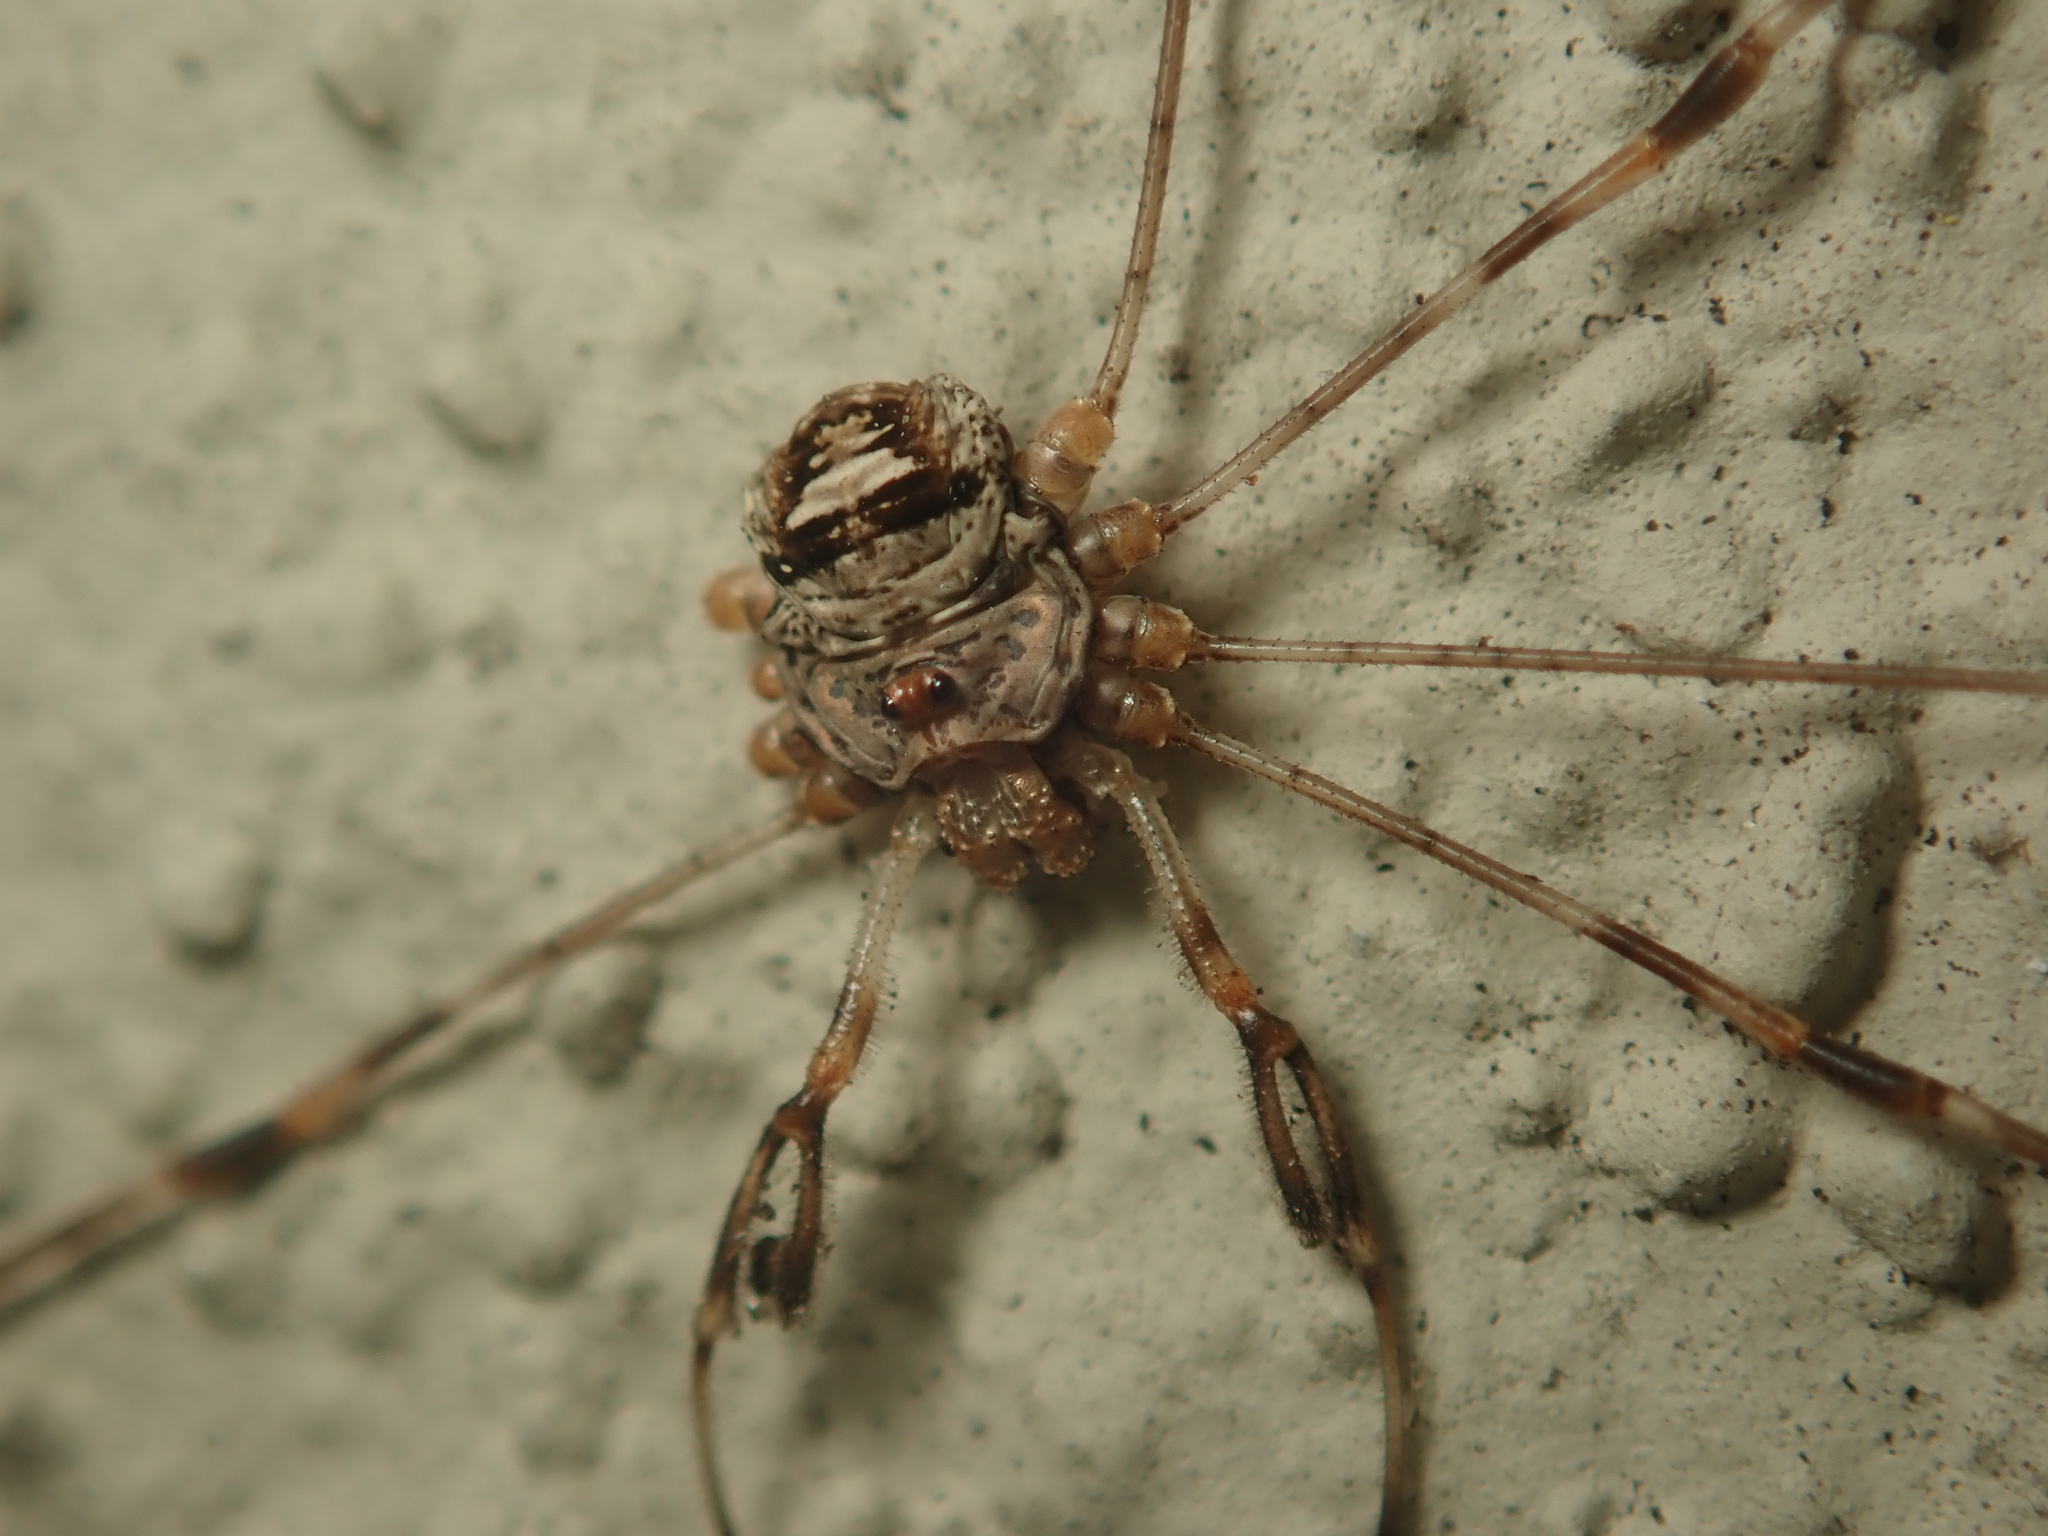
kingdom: Animalia
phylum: Arthropoda
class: Arachnida
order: Opiliones
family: Phalangiidae
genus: Dicranopalpus
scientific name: Dicranopalpus ramosus
